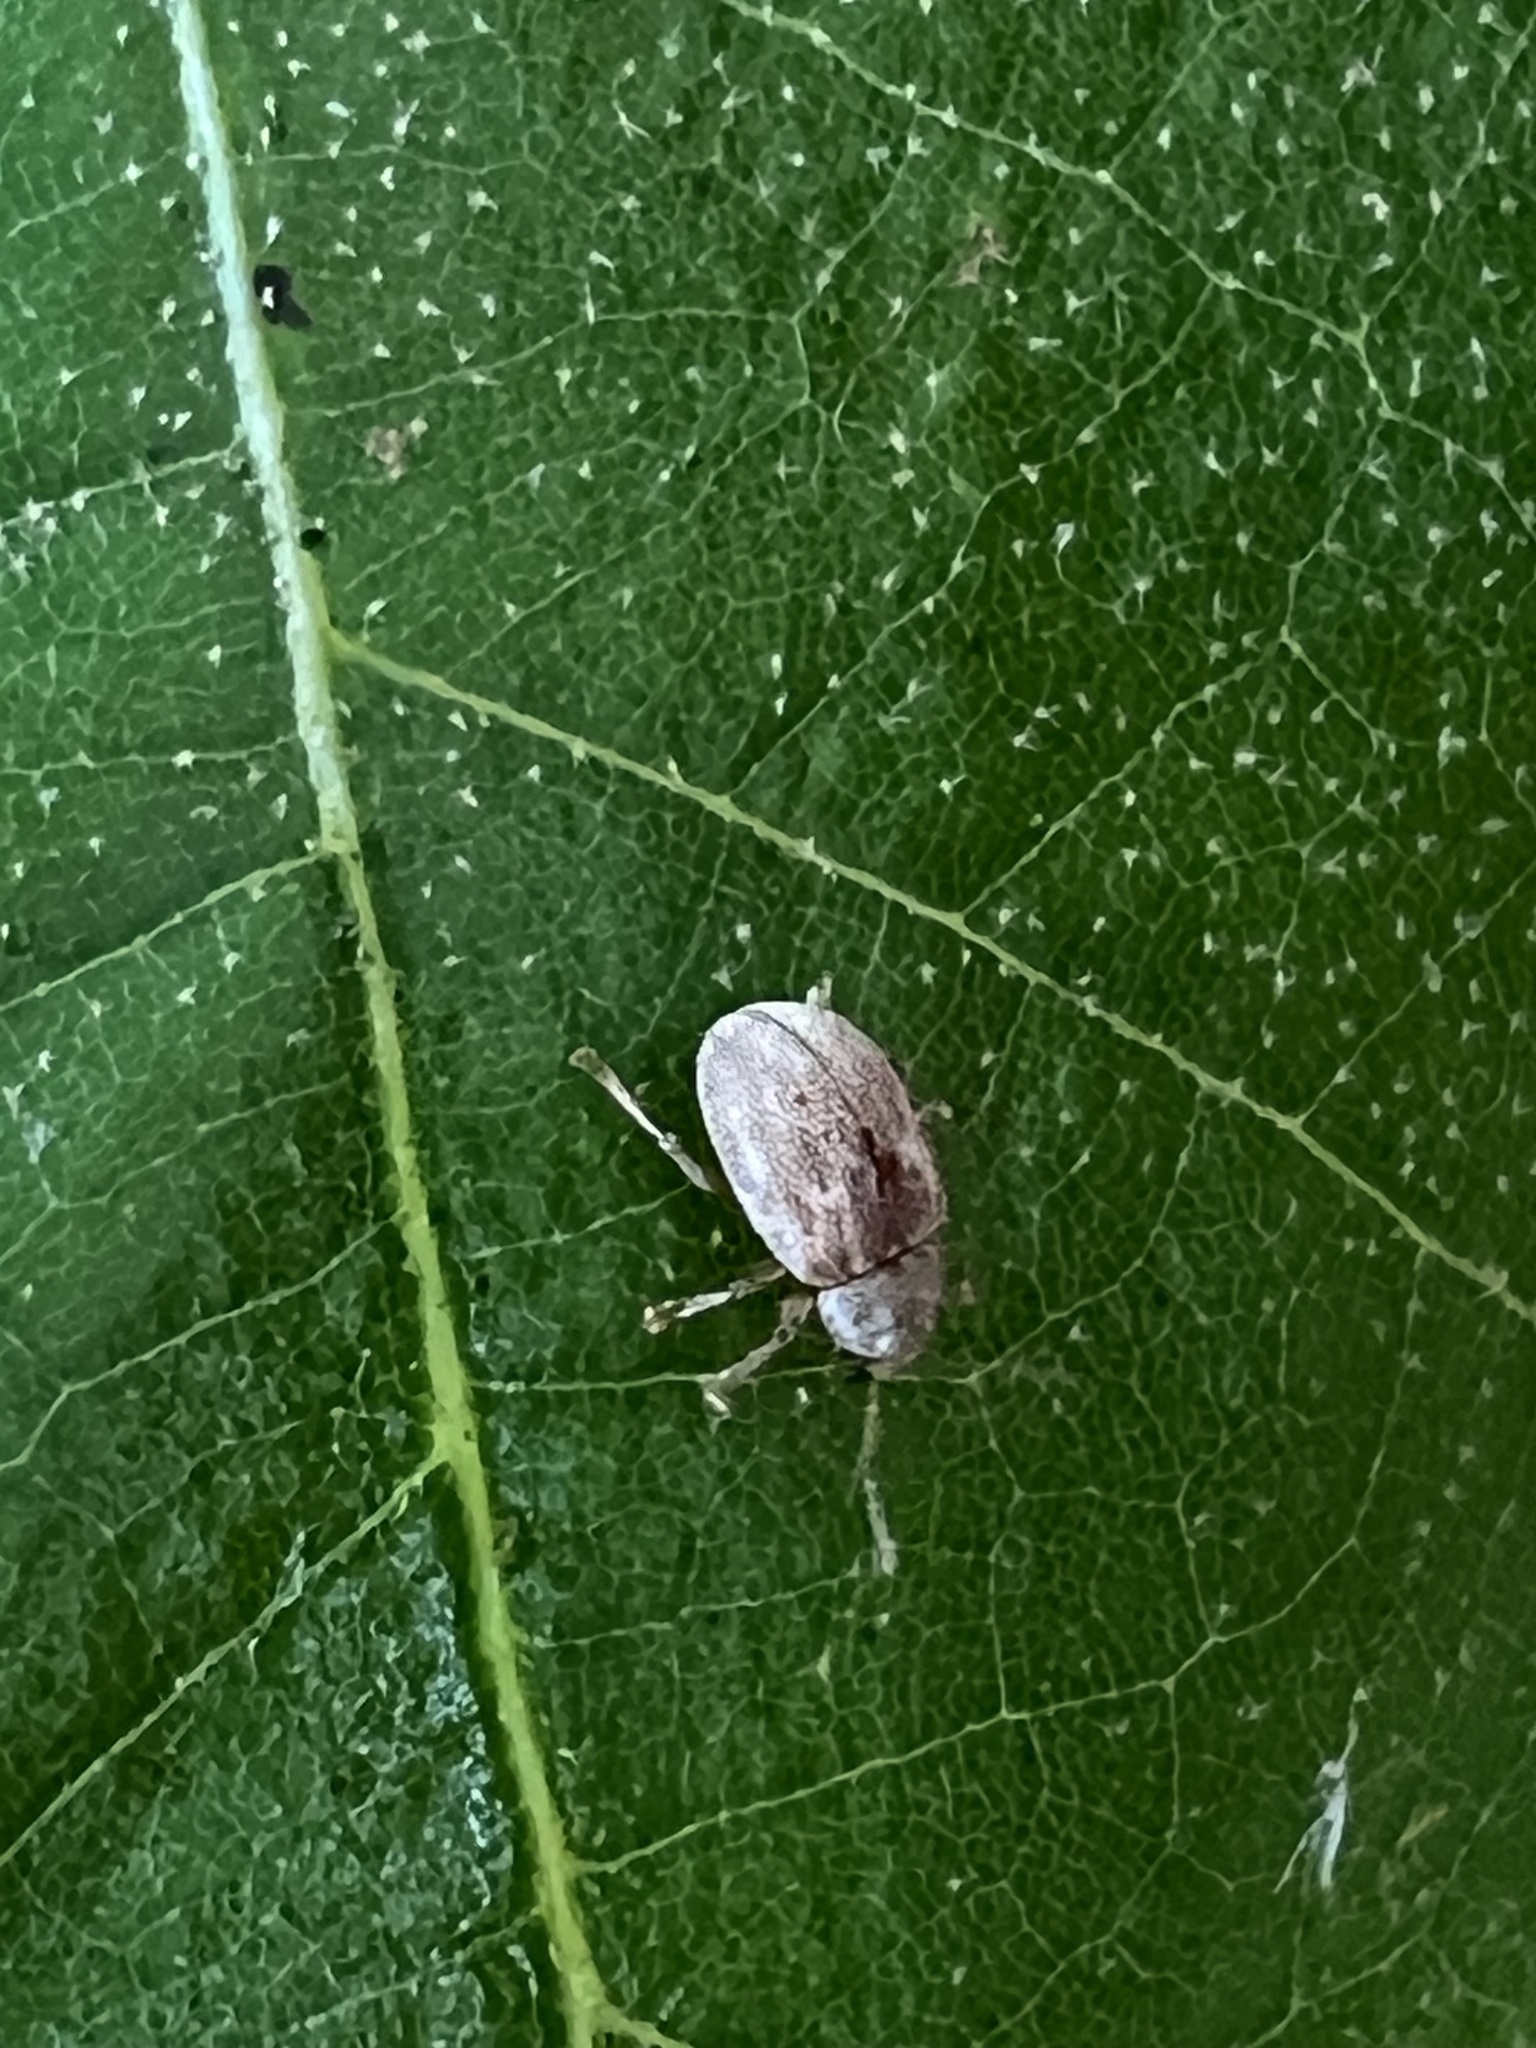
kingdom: Animalia
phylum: Arthropoda
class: Insecta
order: Coleoptera
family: Chrysomelidae
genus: Demotina
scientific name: Demotina modesta
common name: Leaf beetle
